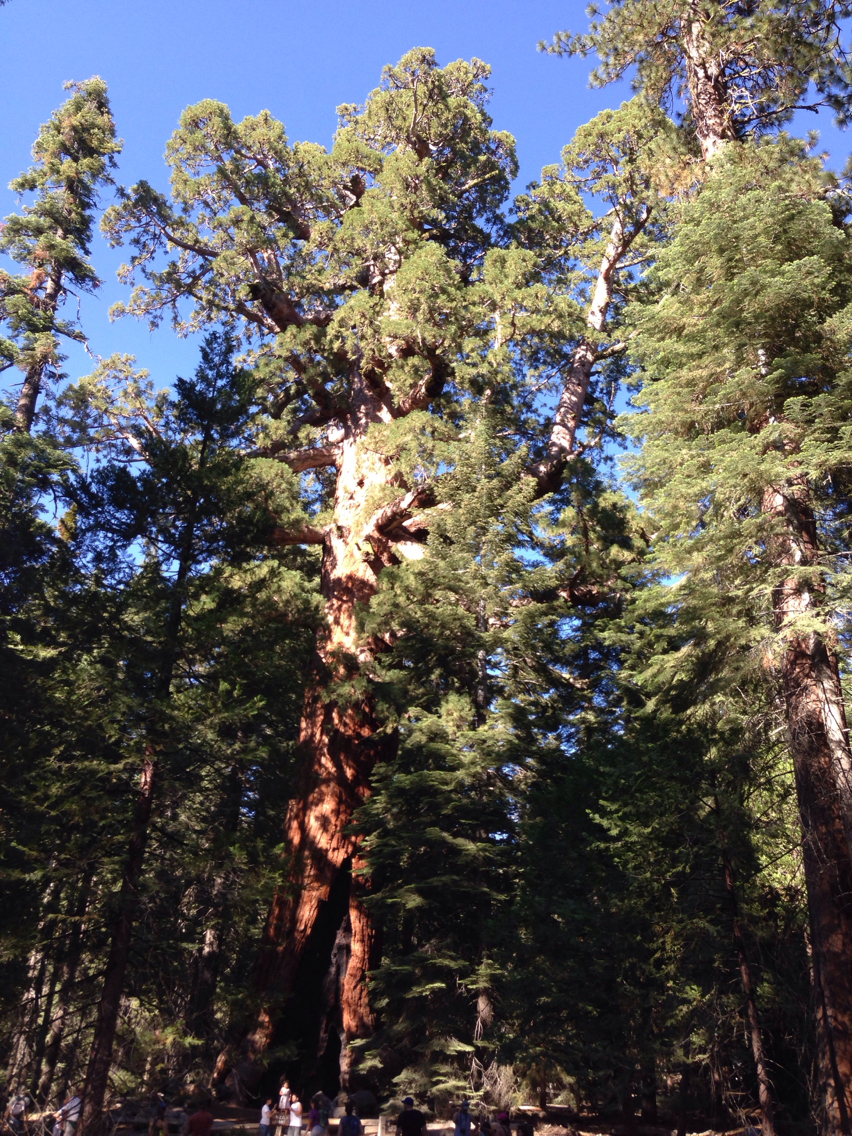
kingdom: Plantae
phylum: Tracheophyta
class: Pinopsida
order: Pinales
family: Cupressaceae
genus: Sequoiadendron
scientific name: Sequoiadendron giganteum
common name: Wellingtonia
